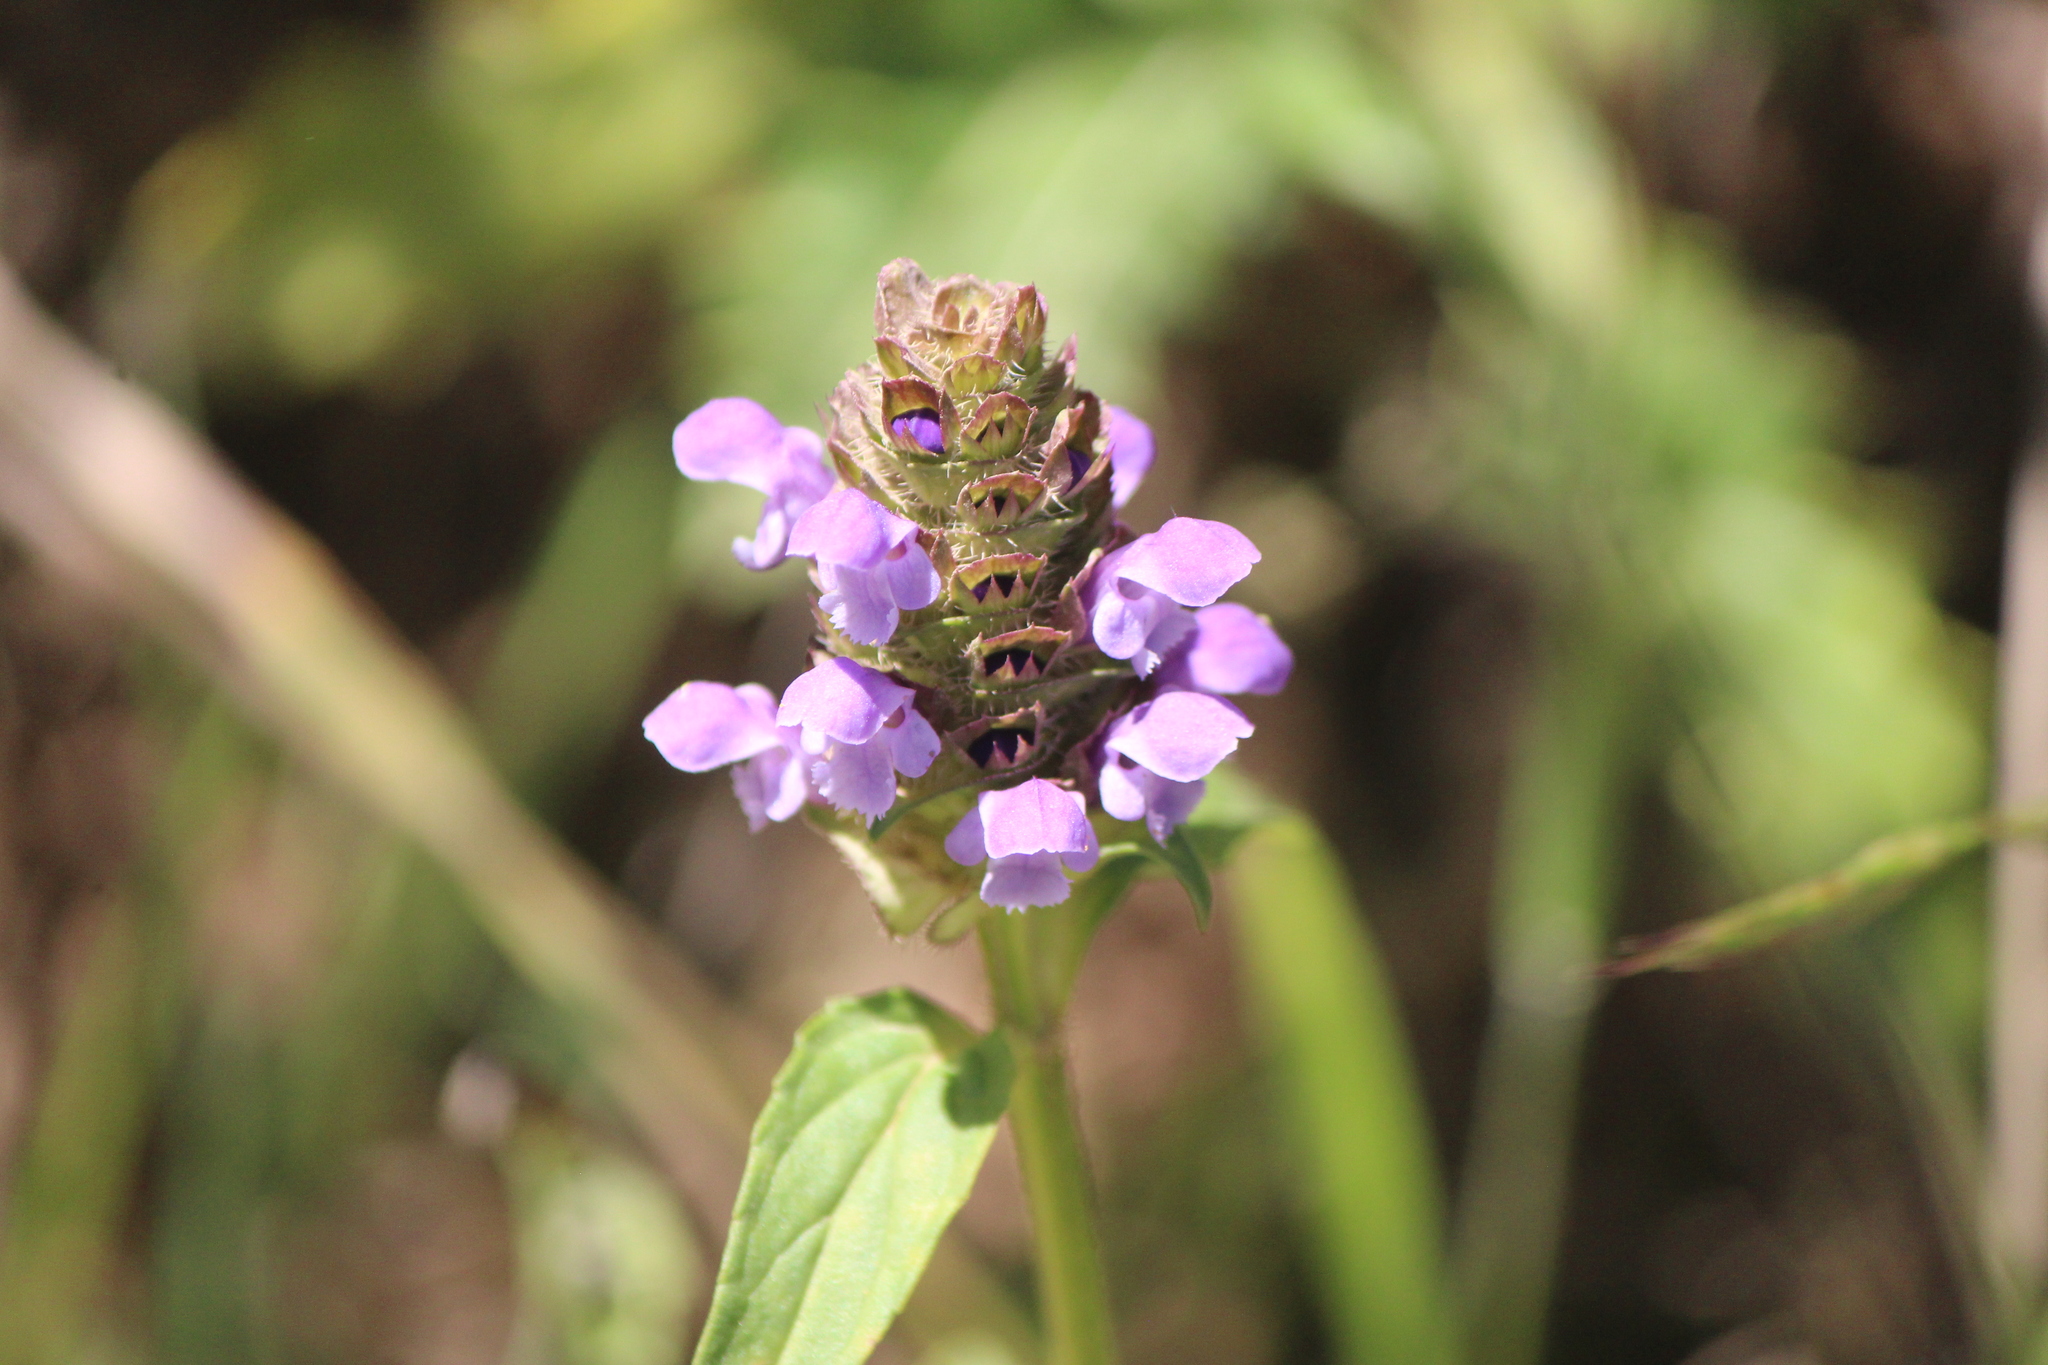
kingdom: Plantae
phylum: Tracheophyta
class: Magnoliopsida
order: Lamiales
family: Lamiaceae
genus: Prunella
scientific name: Prunella vulgaris
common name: Heal-all
